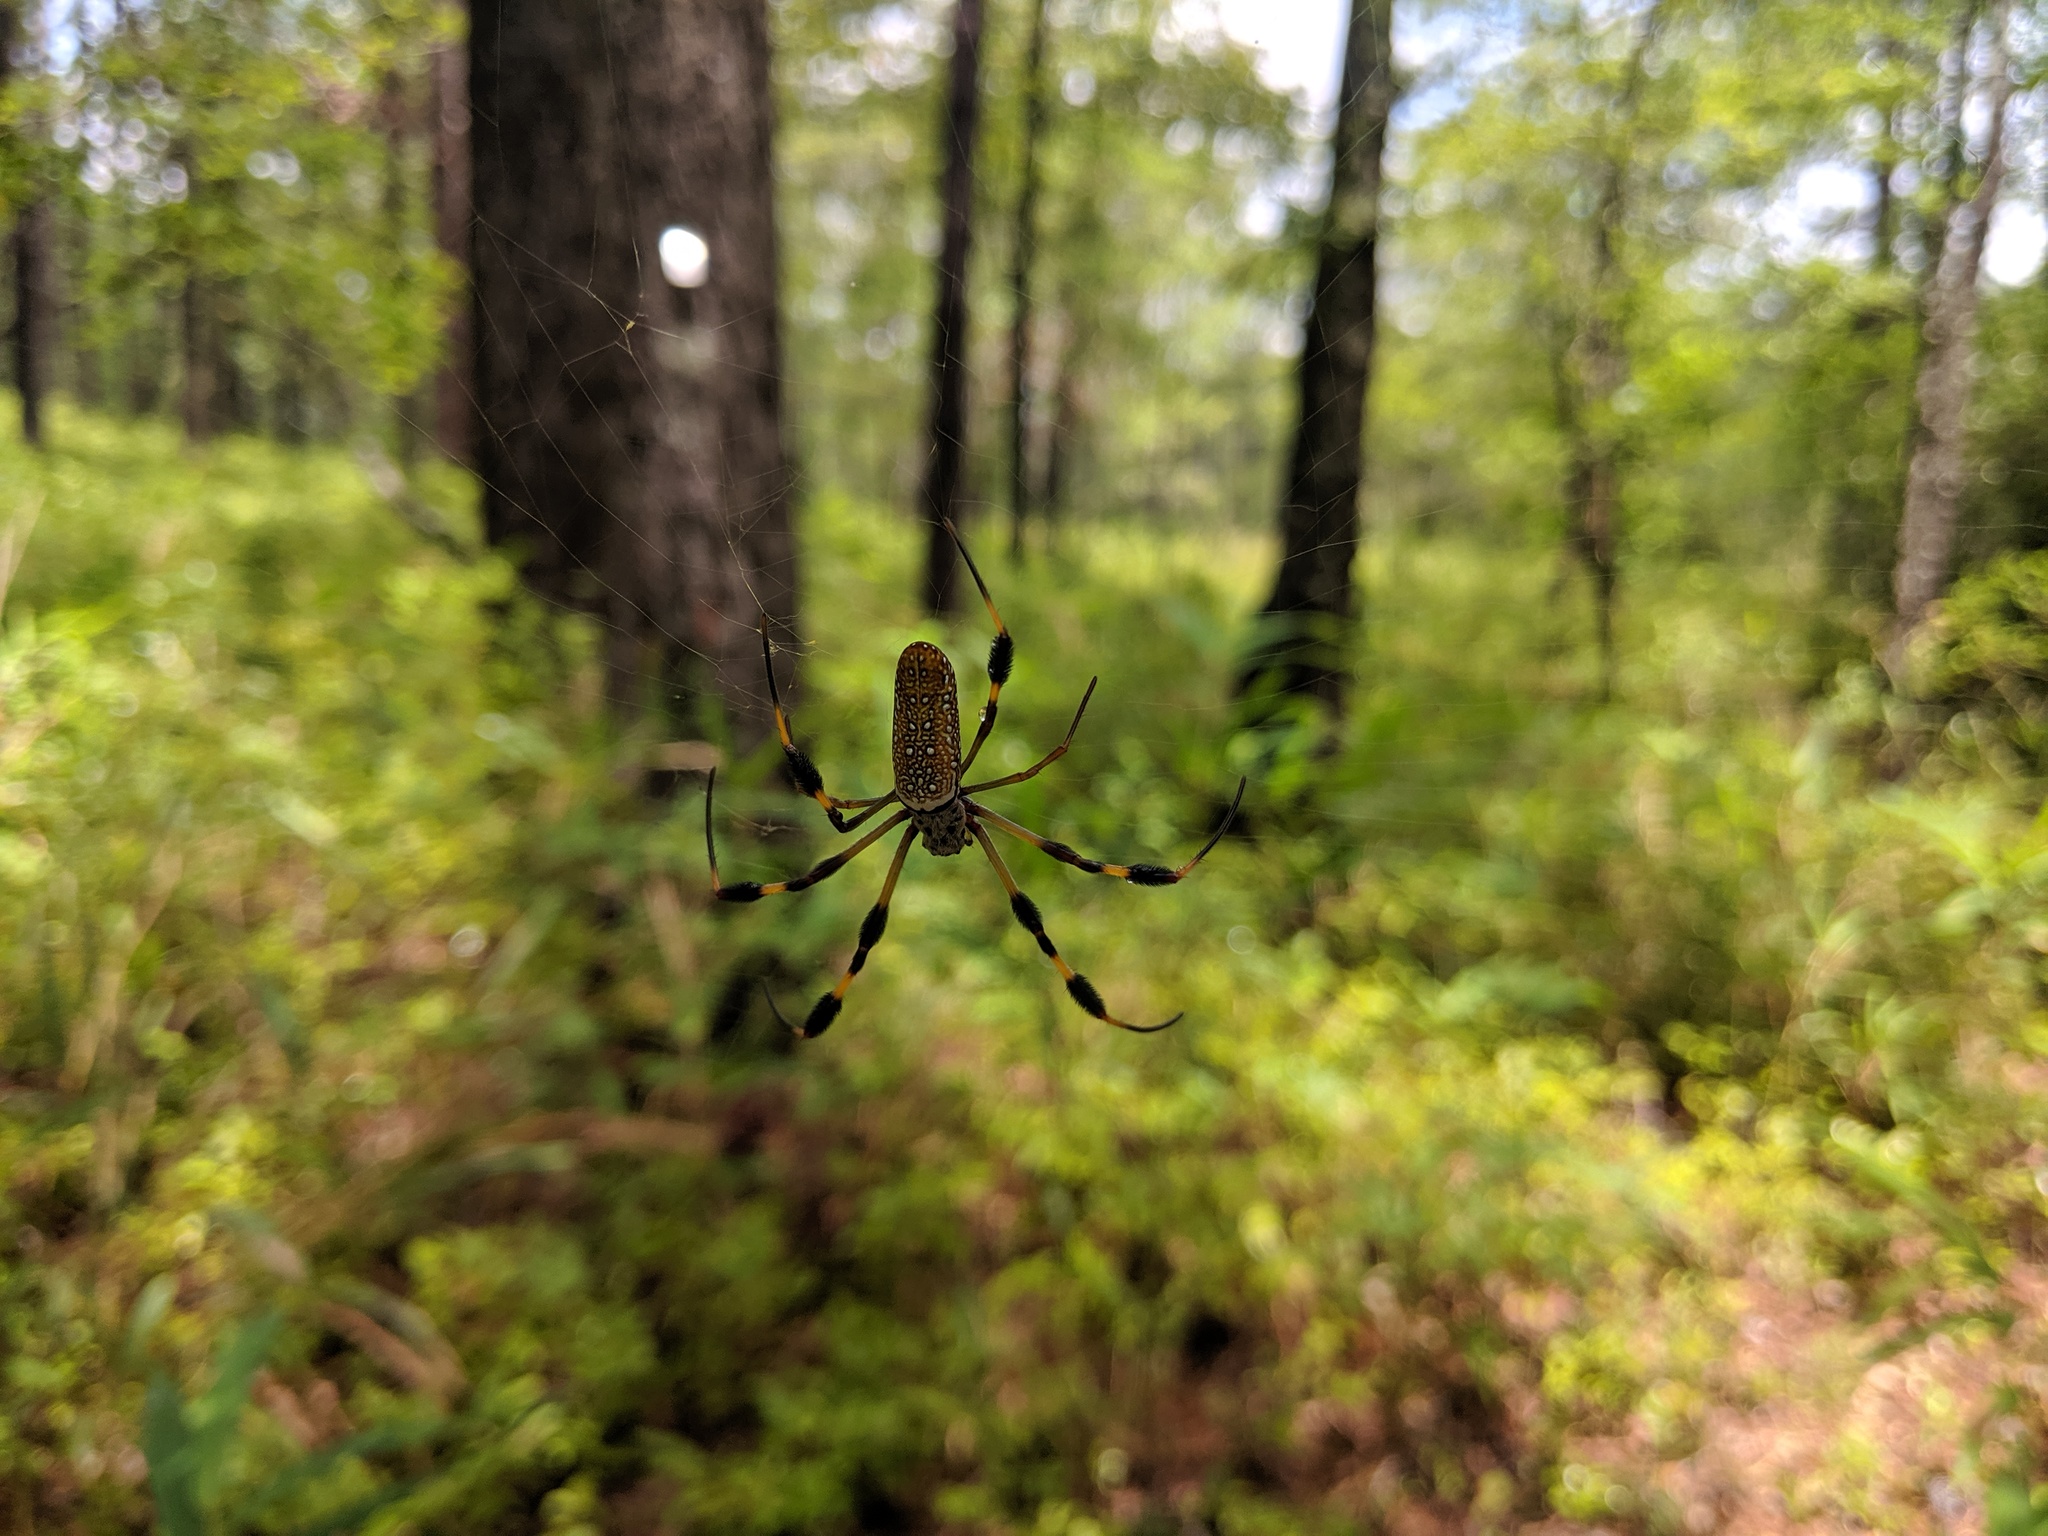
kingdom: Animalia
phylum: Arthropoda
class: Arachnida
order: Araneae
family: Araneidae
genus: Trichonephila
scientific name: Trichonephila clavipes
